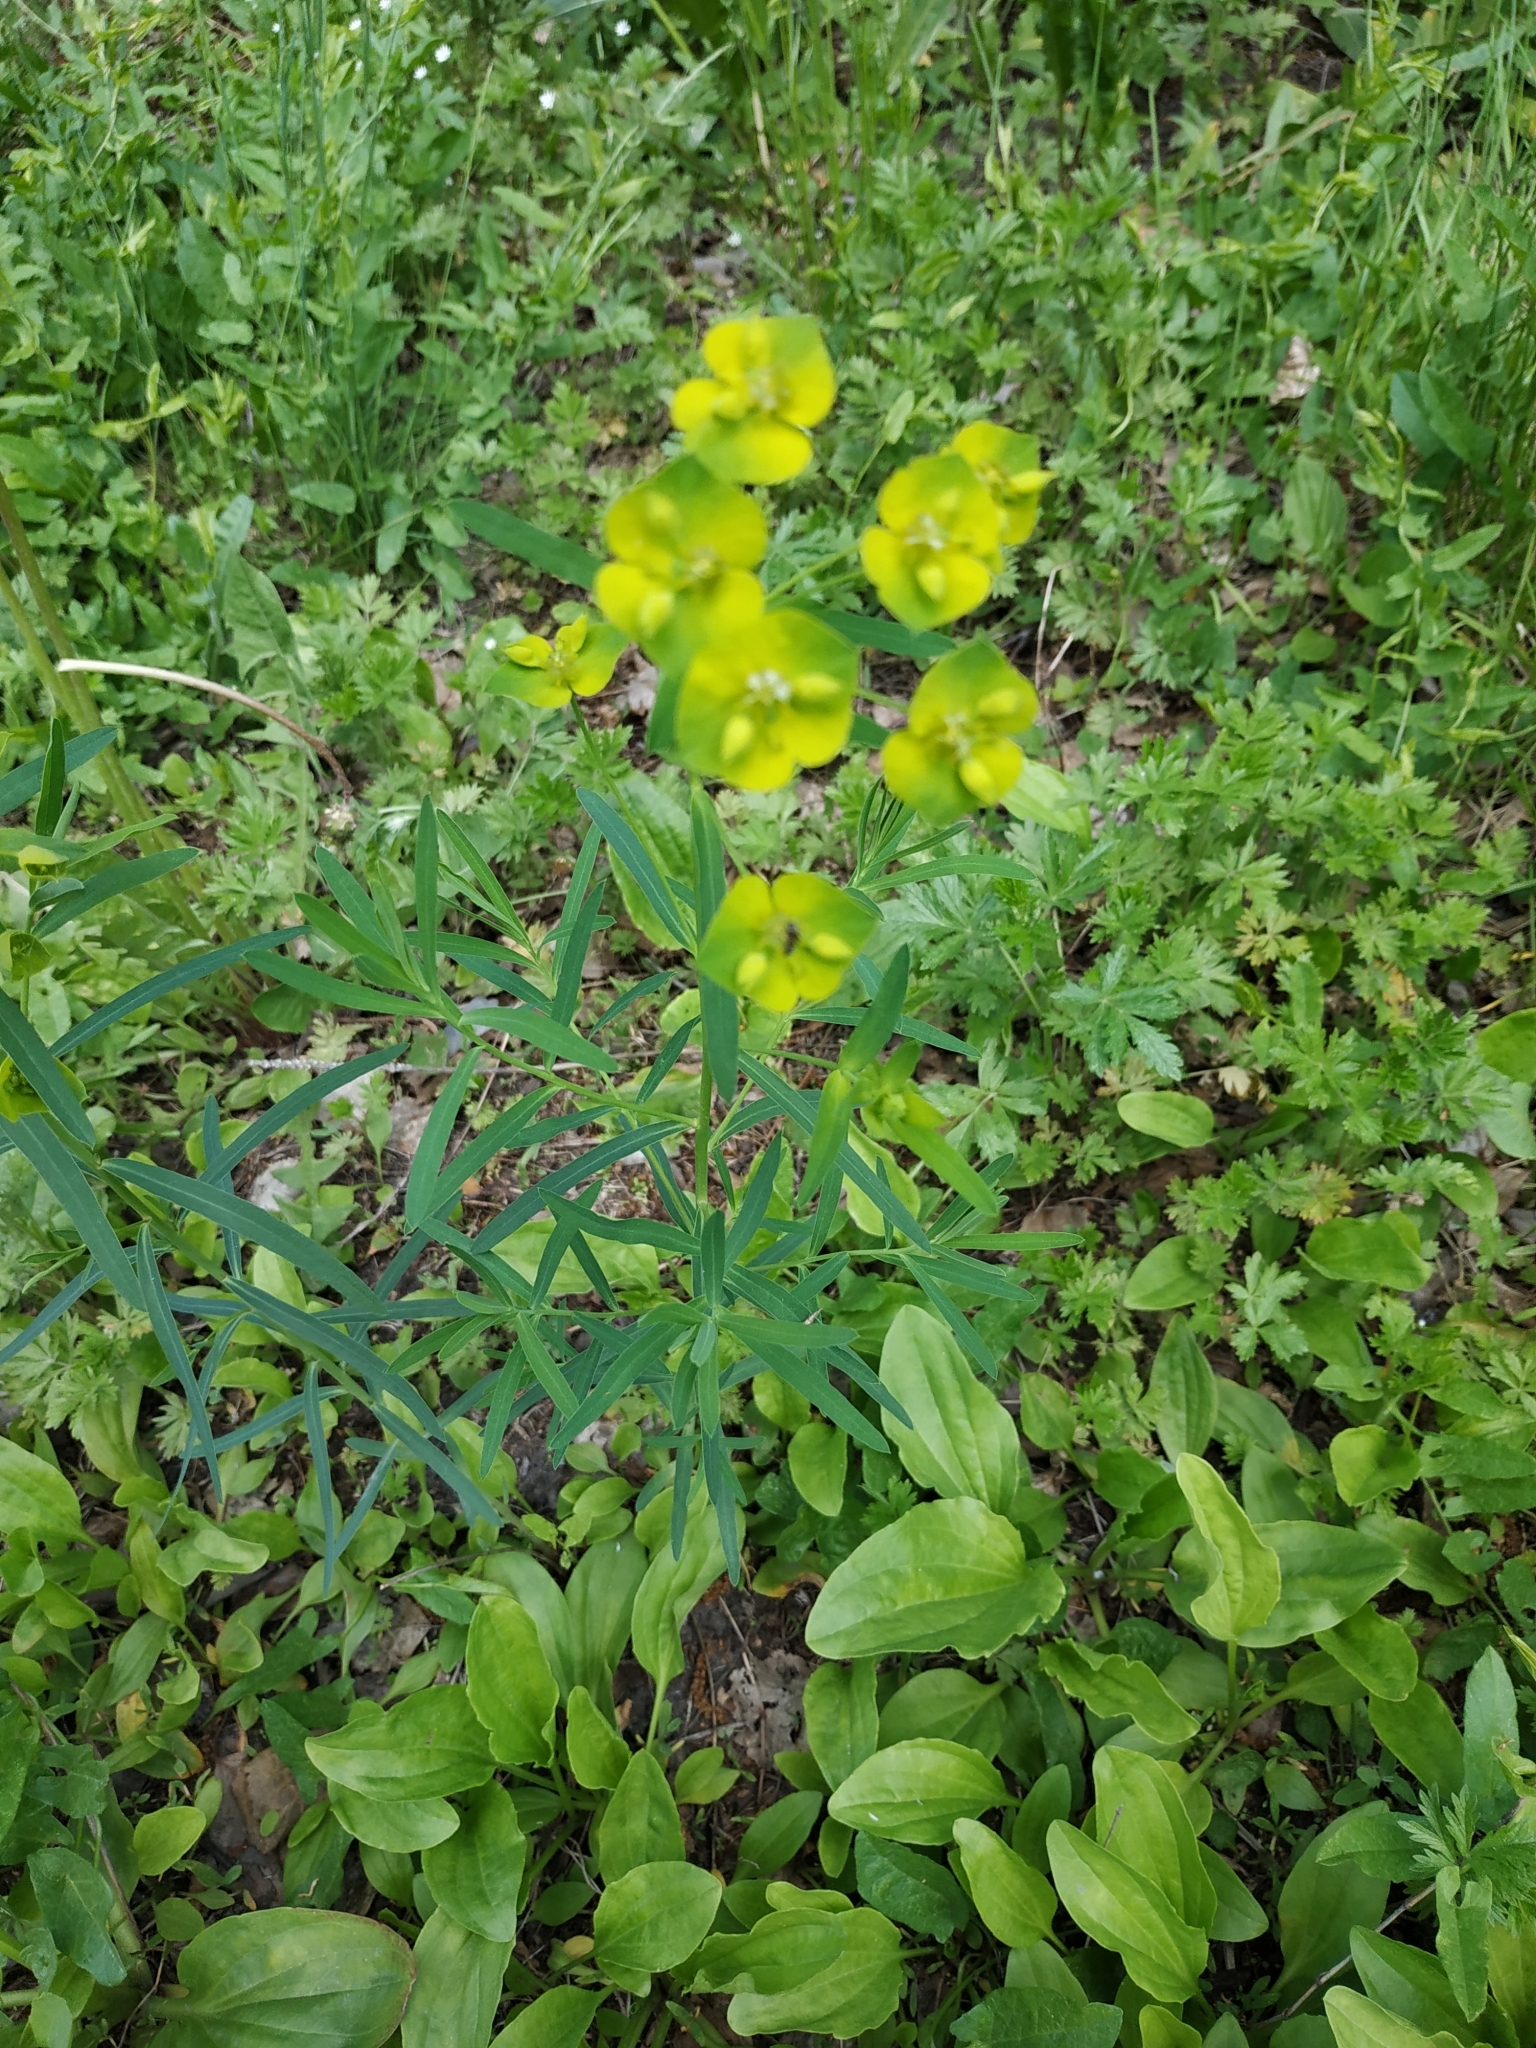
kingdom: Plantae
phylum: Tracheophyta
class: Magnoliopsida
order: Malpighiales
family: Euphorbiaceae
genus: Euphorbia
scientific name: Euphorbia virgata
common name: Leafy spurge
